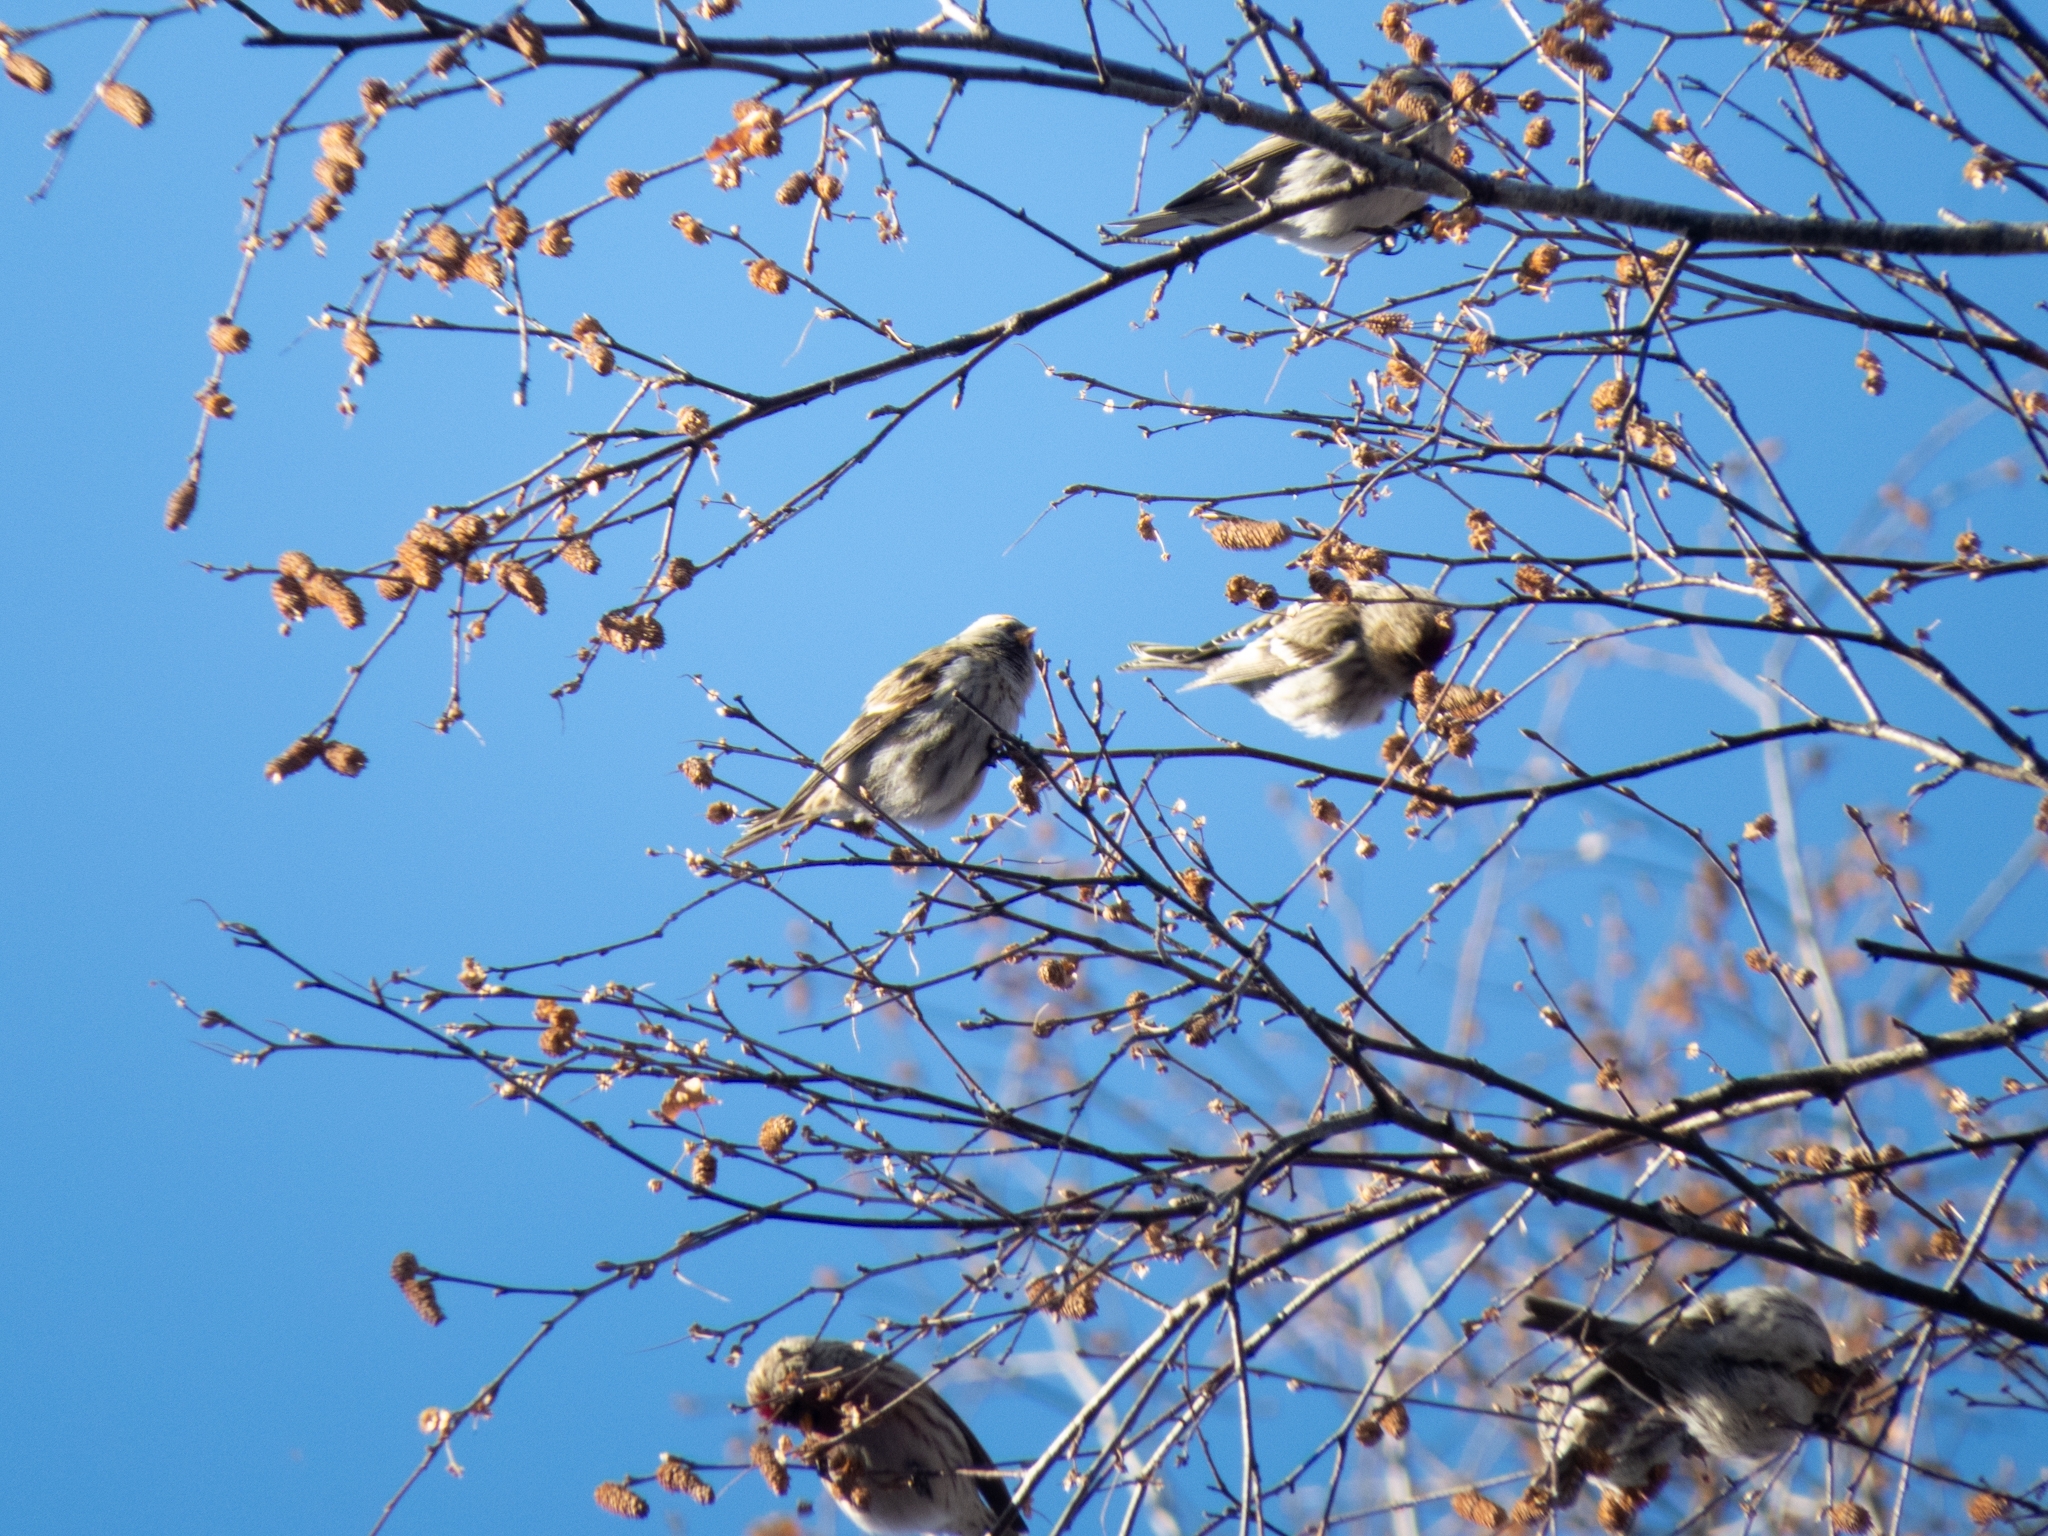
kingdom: Animalia
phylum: Chordata
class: Aves
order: Passeriformes
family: Fringillidae
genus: Acanthis
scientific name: Acanthis flammea
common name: Common redpoll
